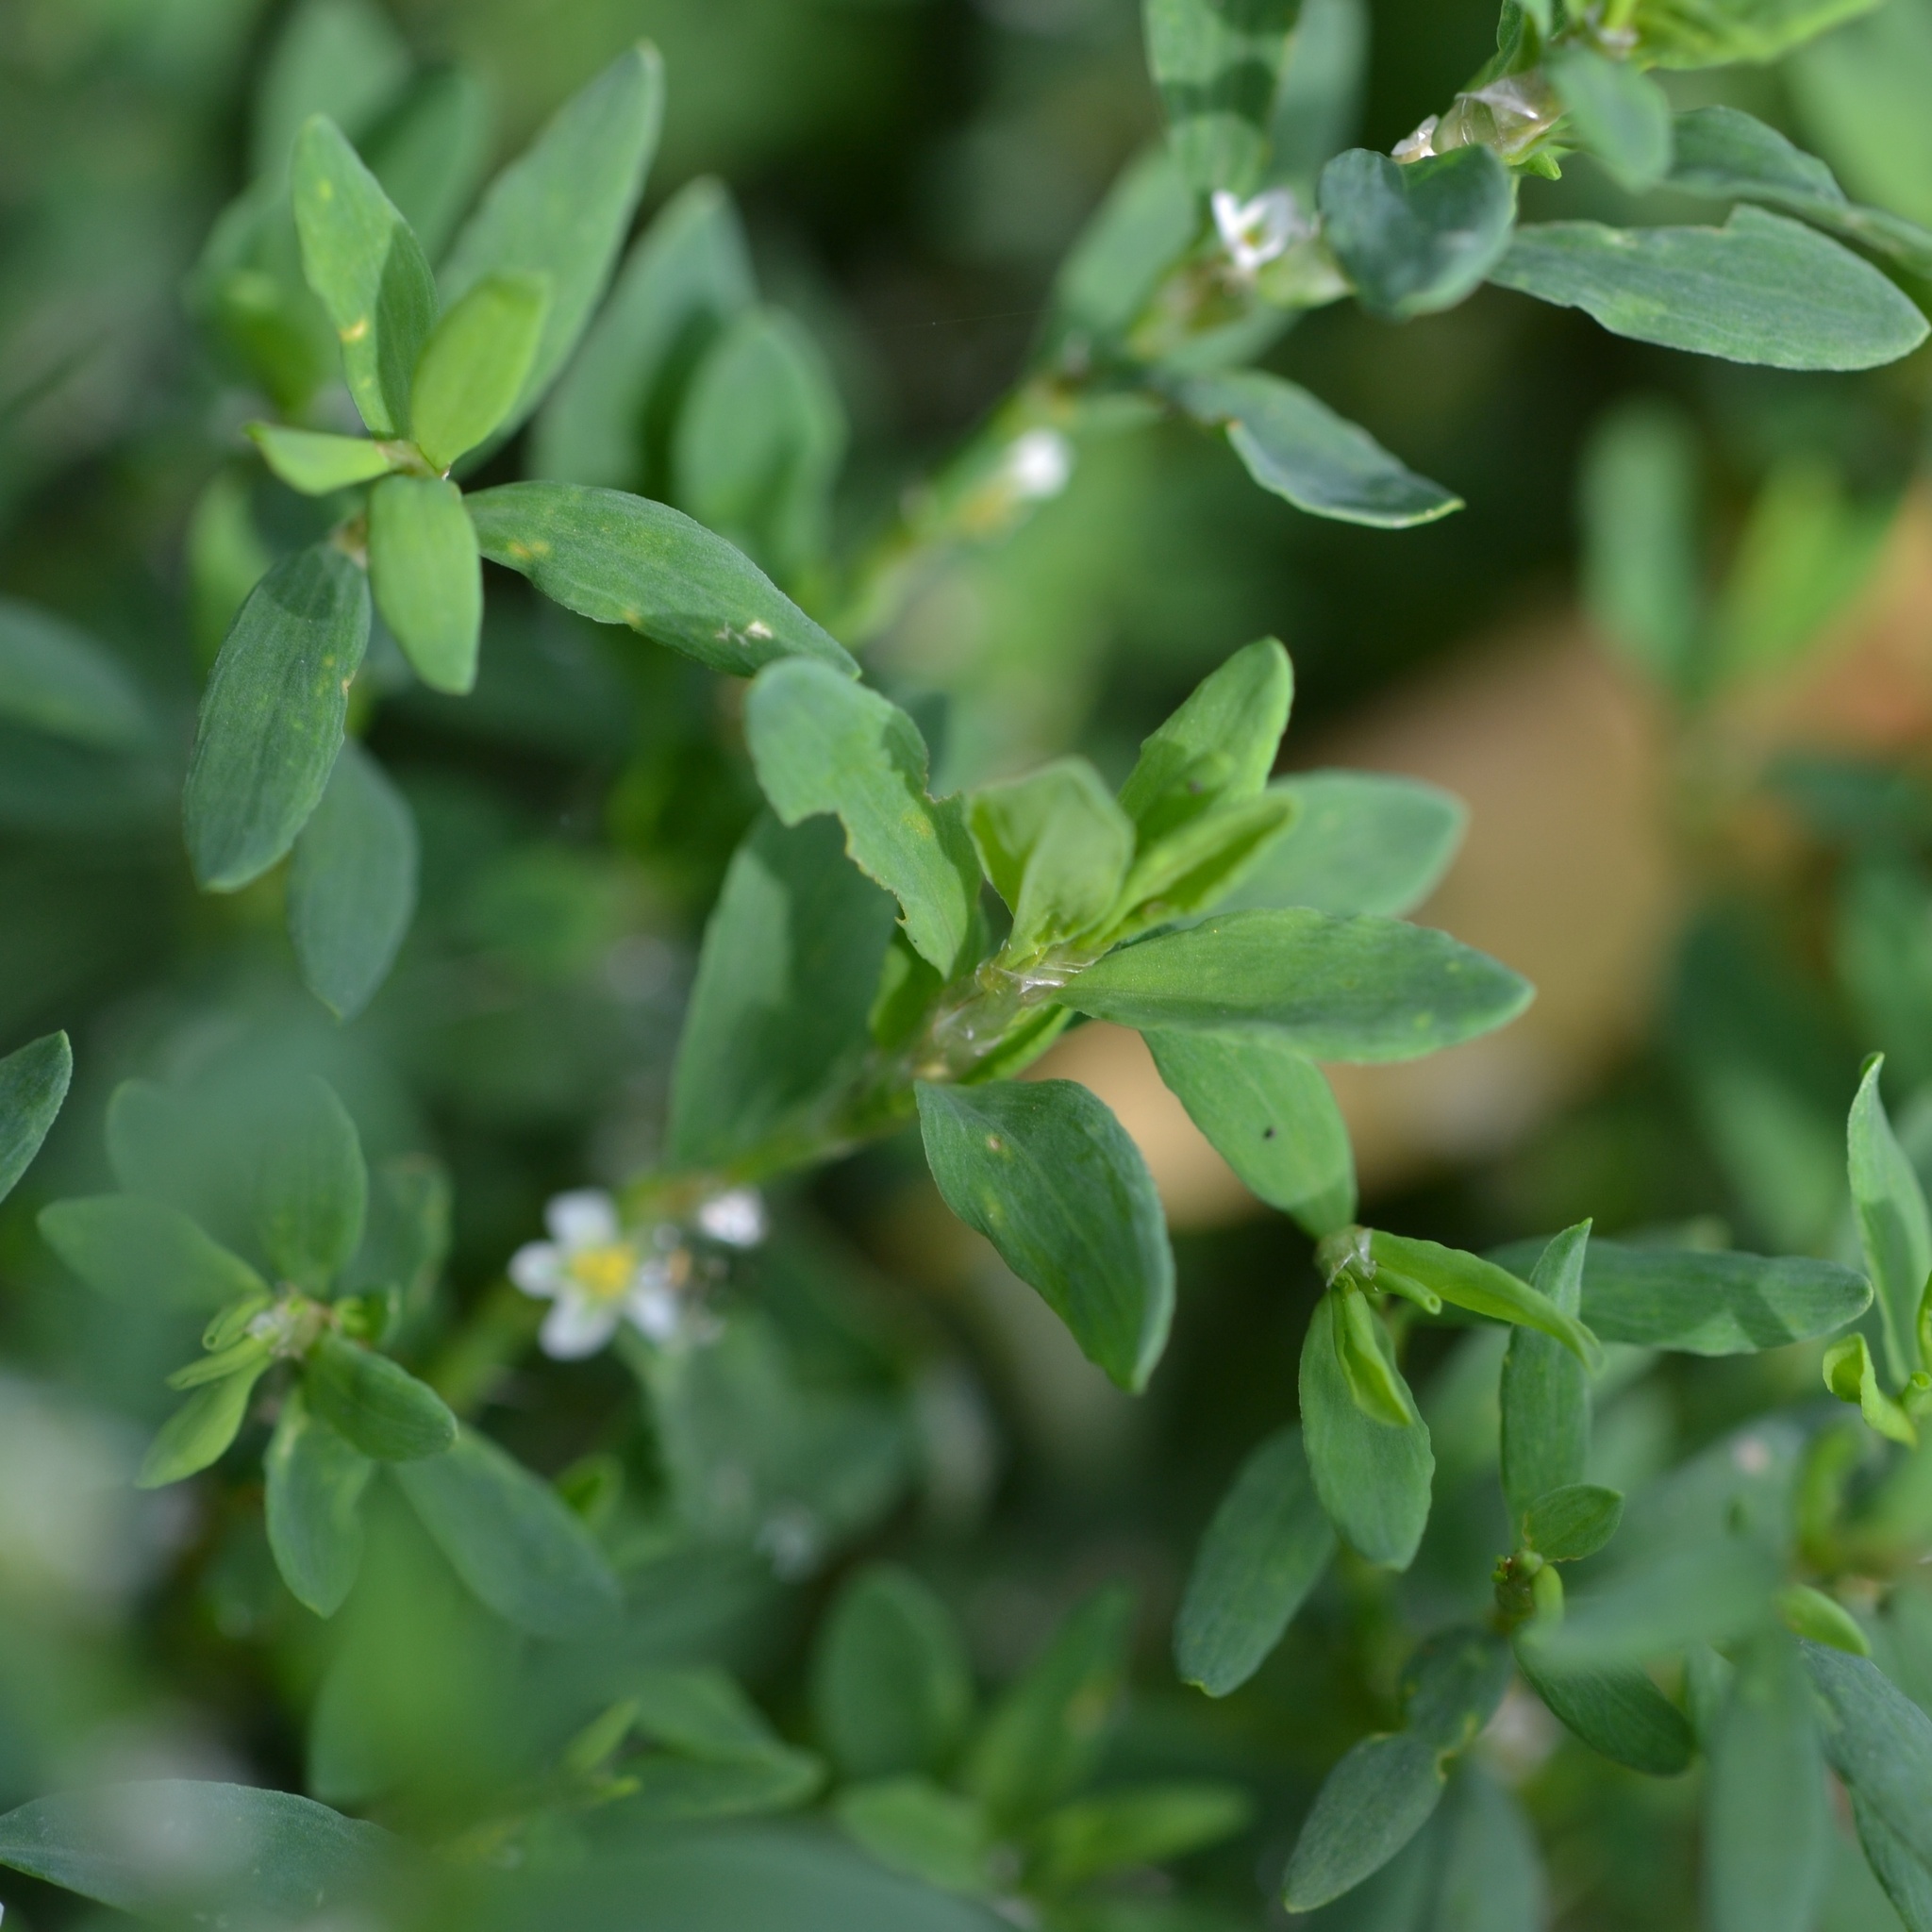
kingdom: Plantae
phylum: Tracheophyta
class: Magnoliopsida
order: Caryophyllales
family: Polygonaceae
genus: Polygonum
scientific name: Polygonum
